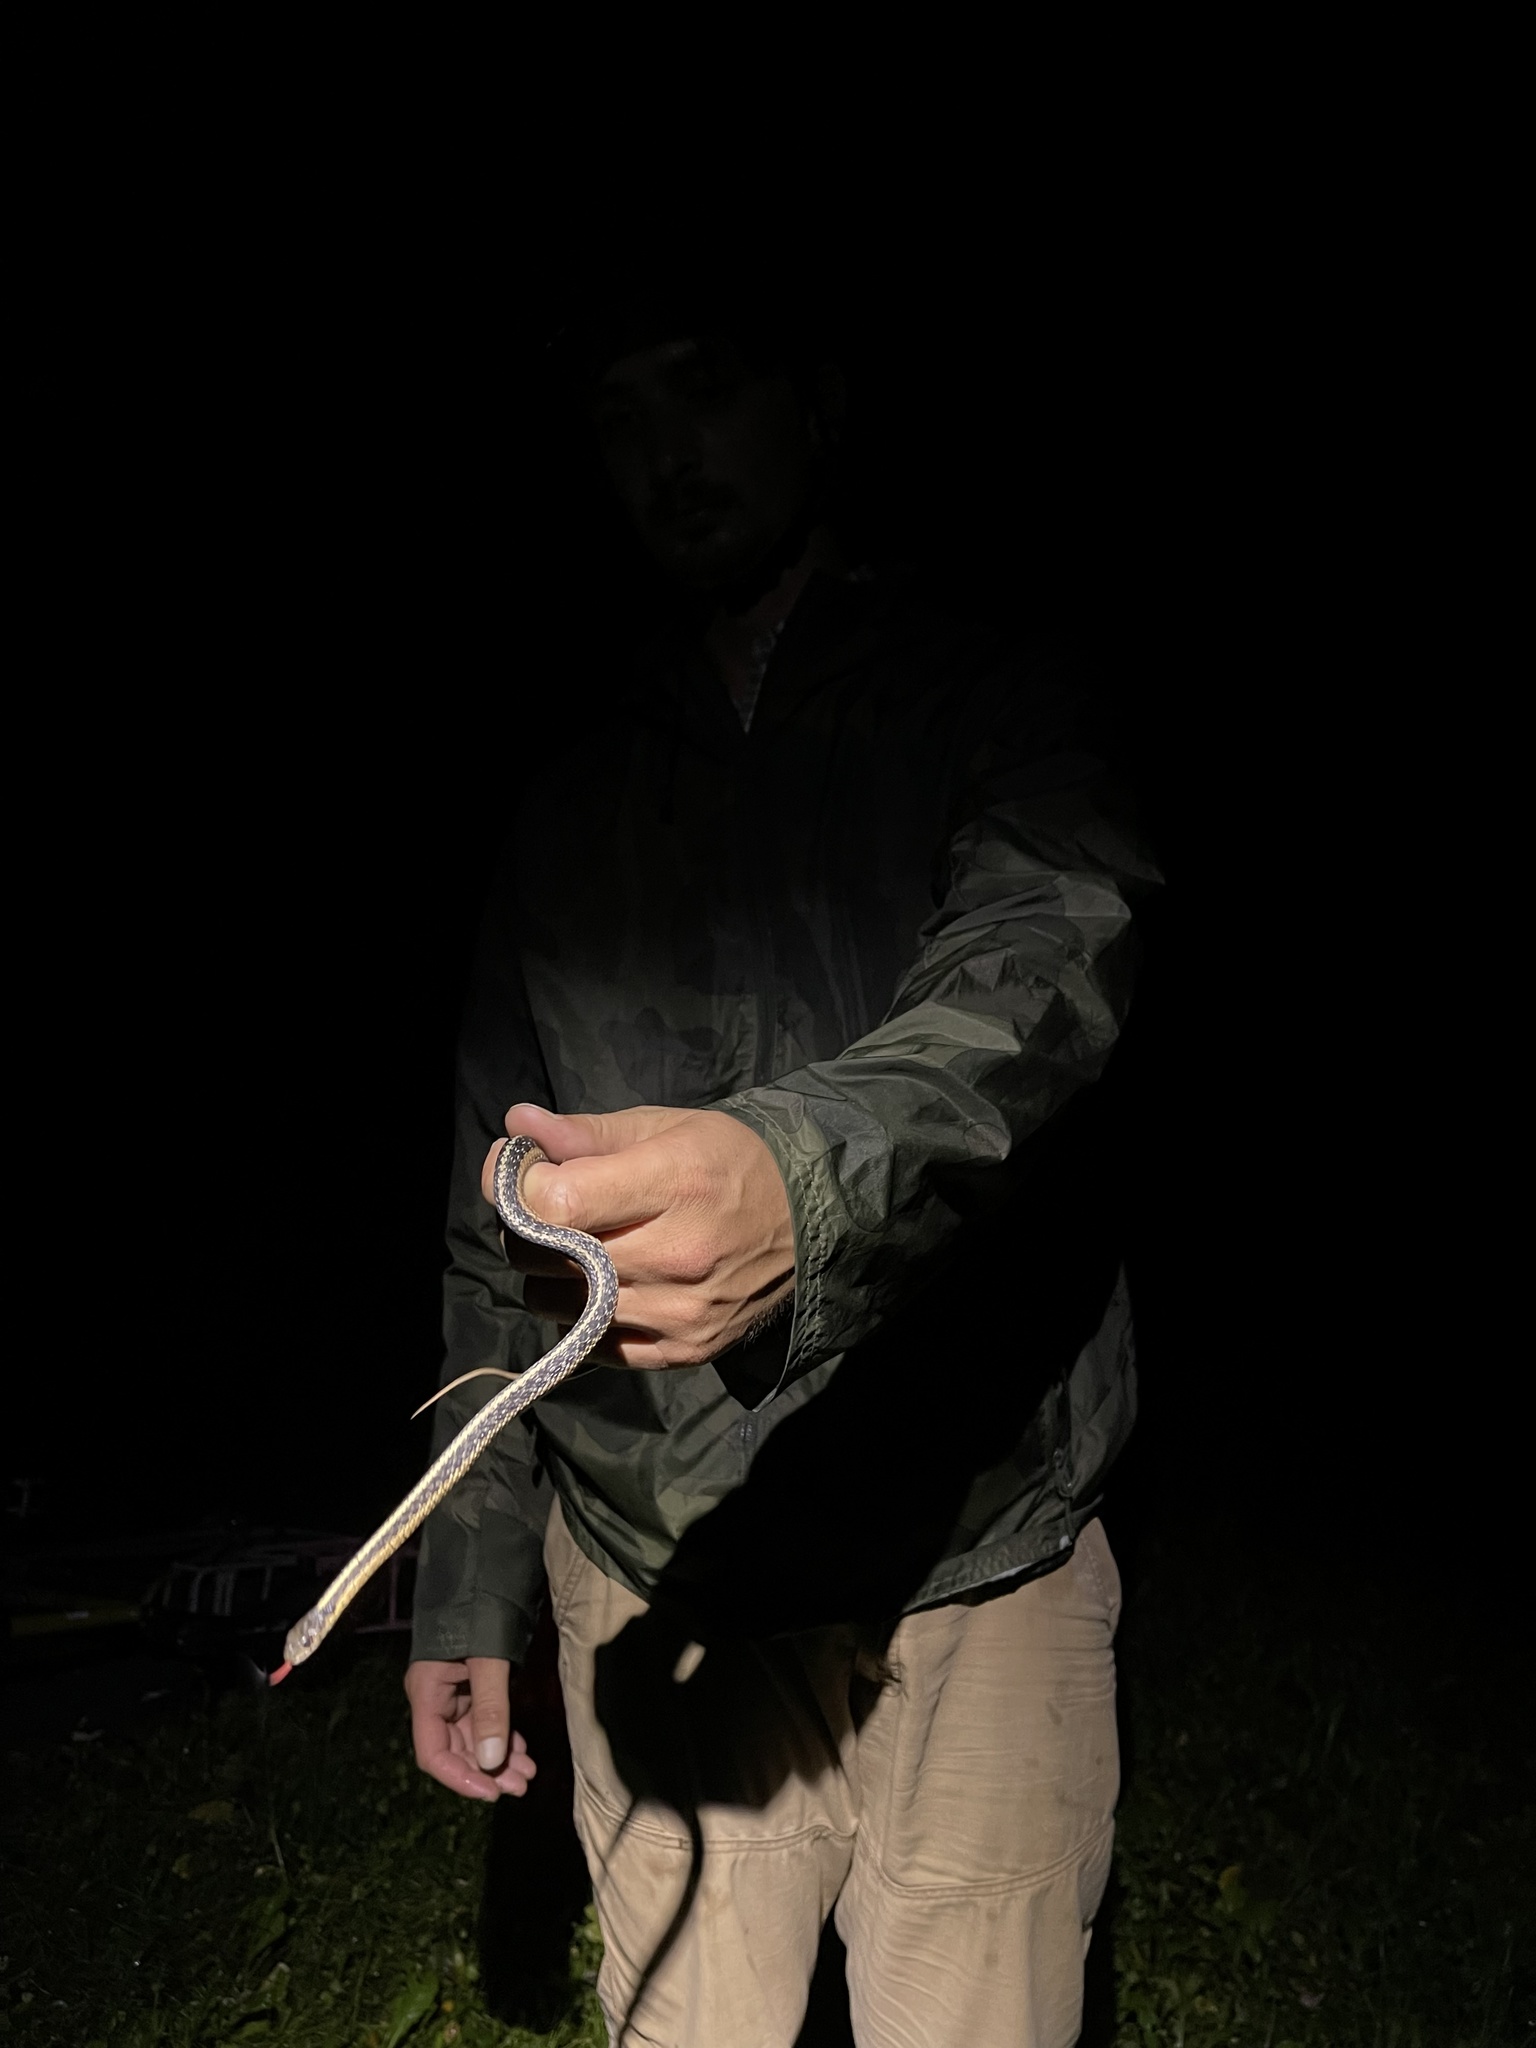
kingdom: Animalia
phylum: Chordata
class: Squamata
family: Colubridae
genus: Thamnophis
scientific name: Thamnophis sirtalis
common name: Common garter snake
